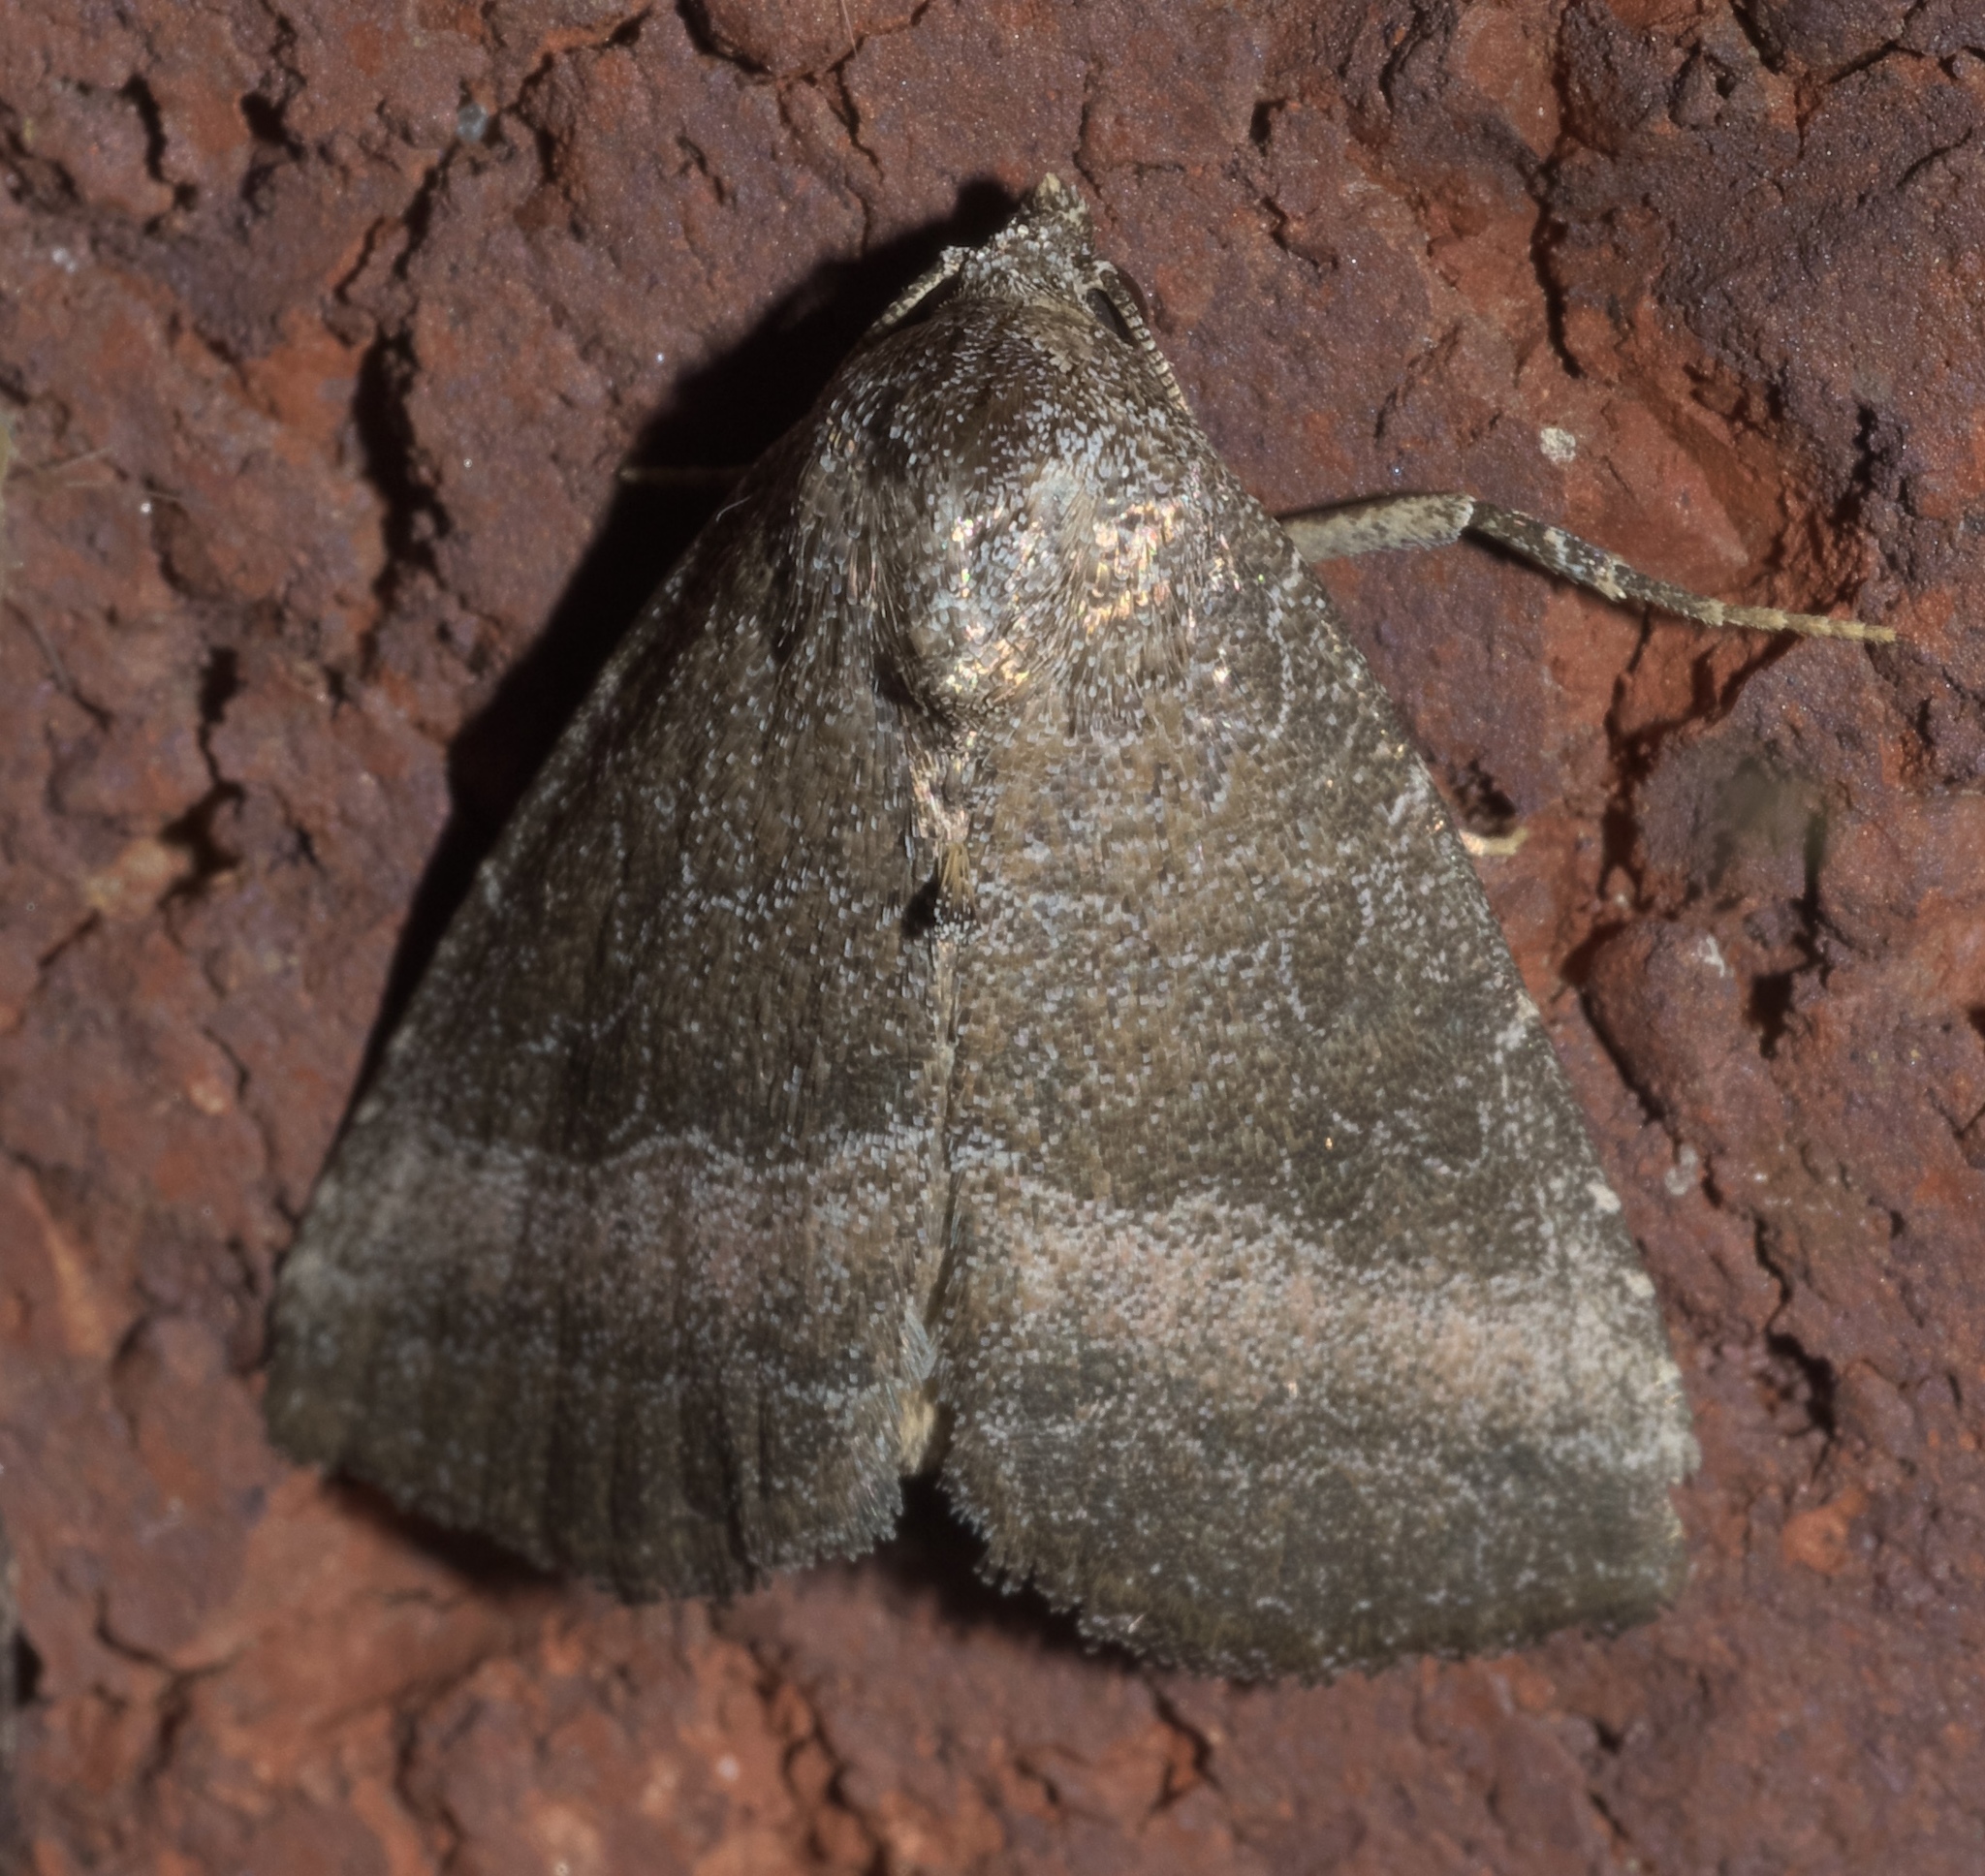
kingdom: Animalia
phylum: Arthropoda
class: Insecta
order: Lepidoptera
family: Noctuidae
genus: Ogdoconta
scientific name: Ogdoconta cinereola
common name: Common pinkband
